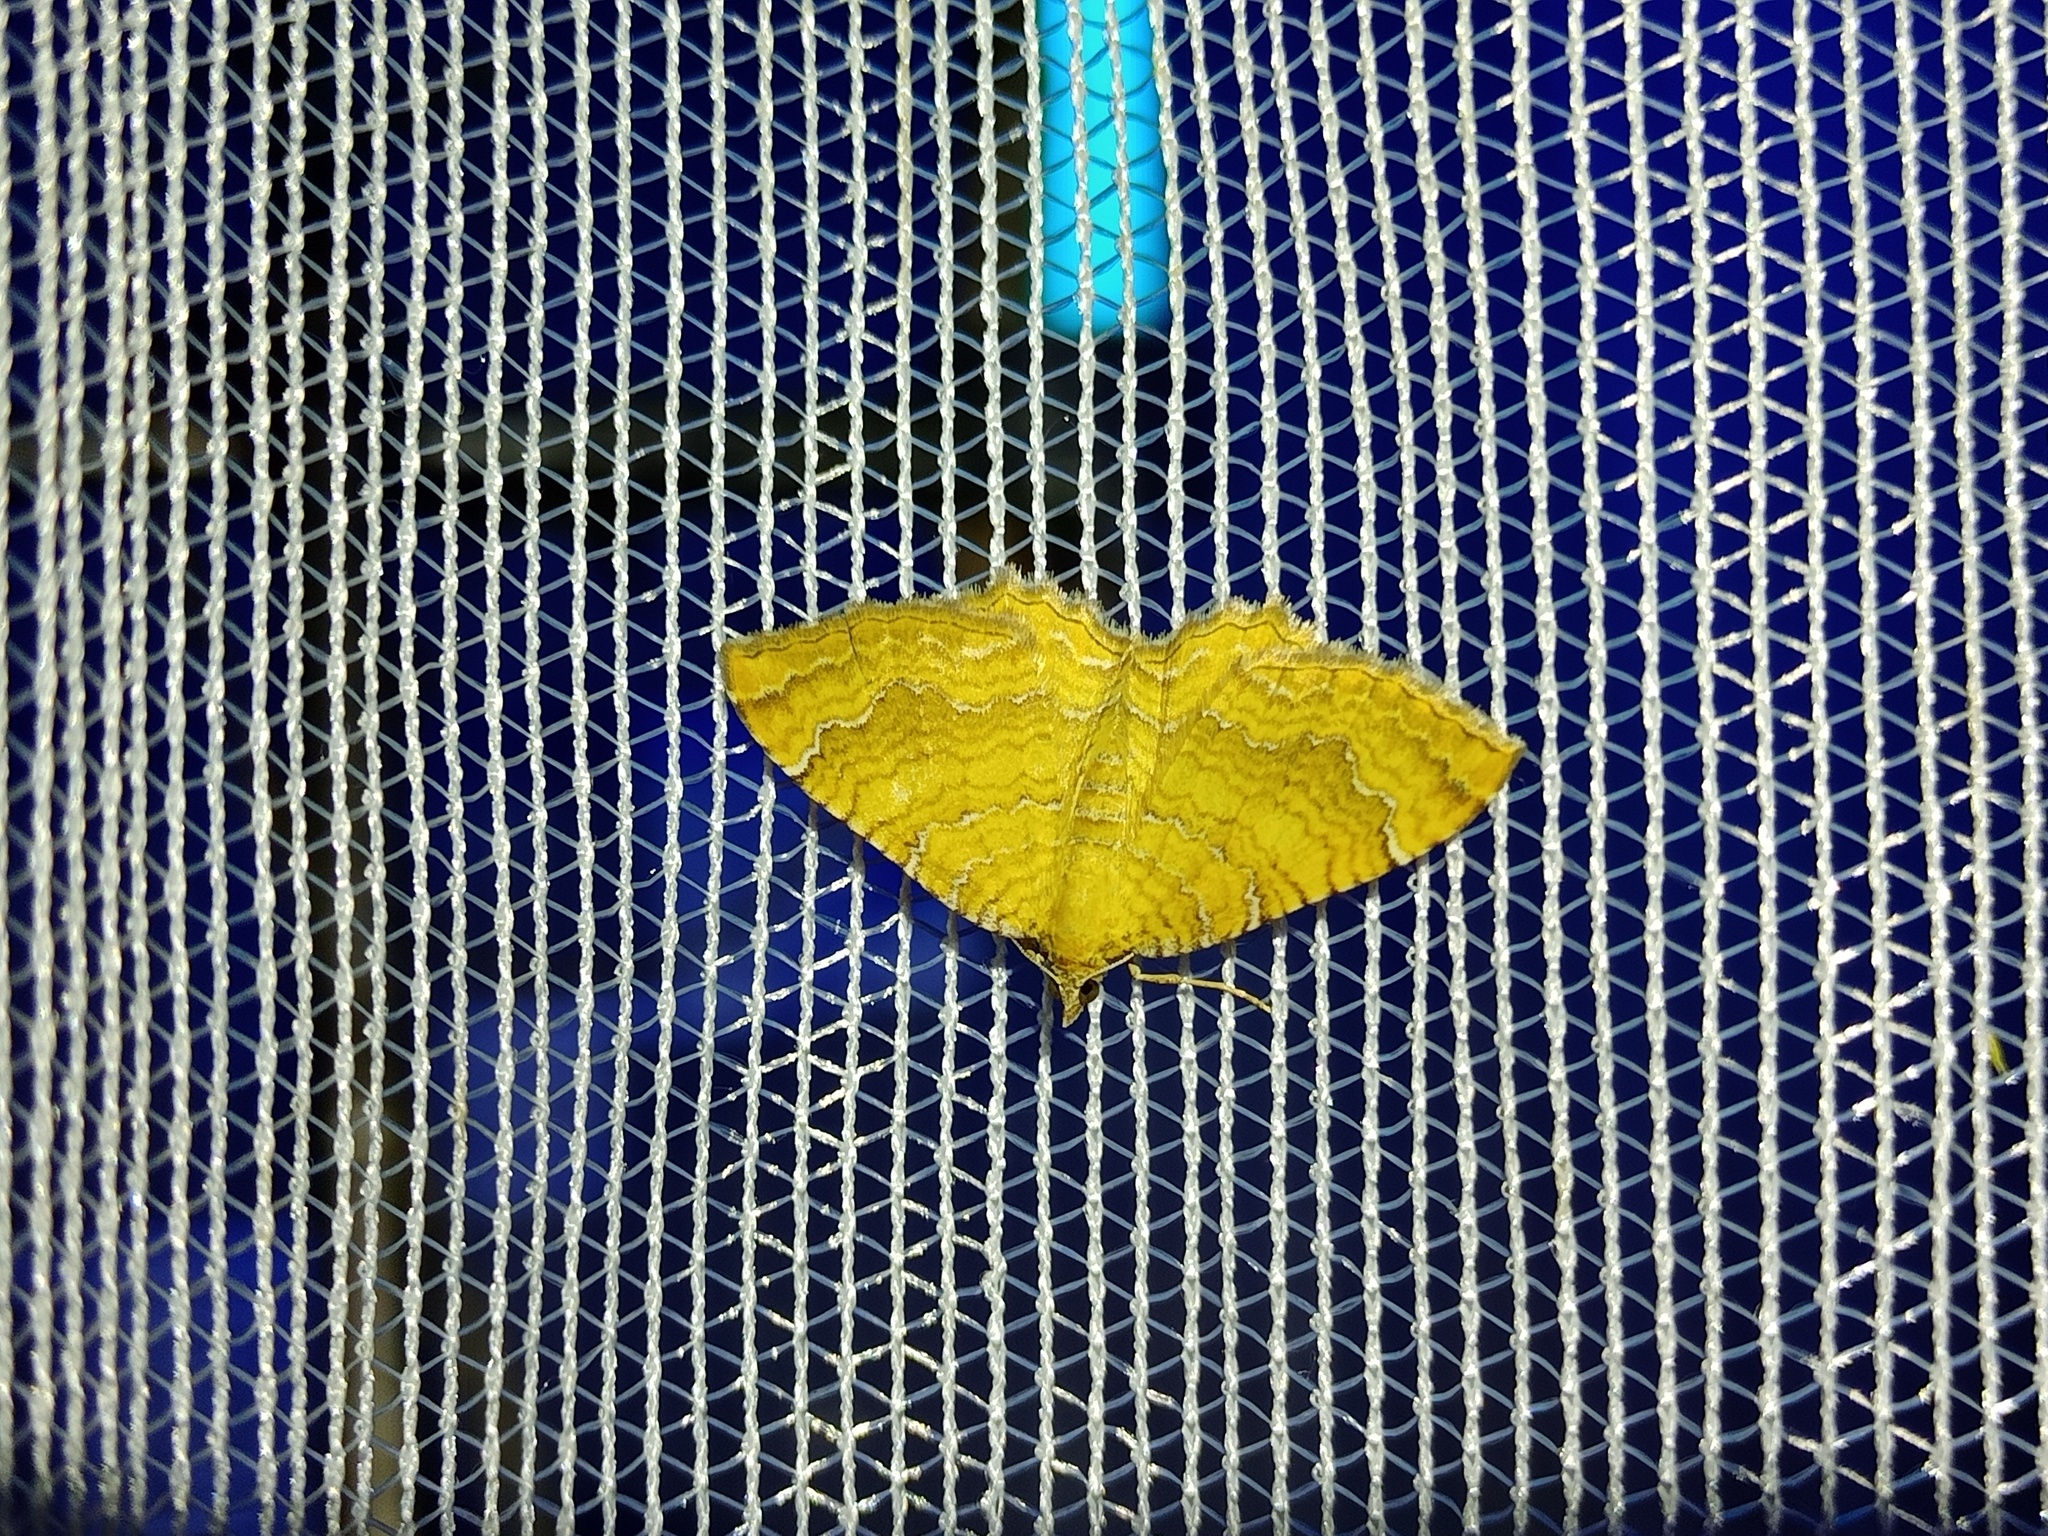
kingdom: Animalia
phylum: Arthropoda
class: Insecta
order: Lepidoptera
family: Geometridae
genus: Camptogramma
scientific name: Camptogramma bilineata
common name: Yellow shell
